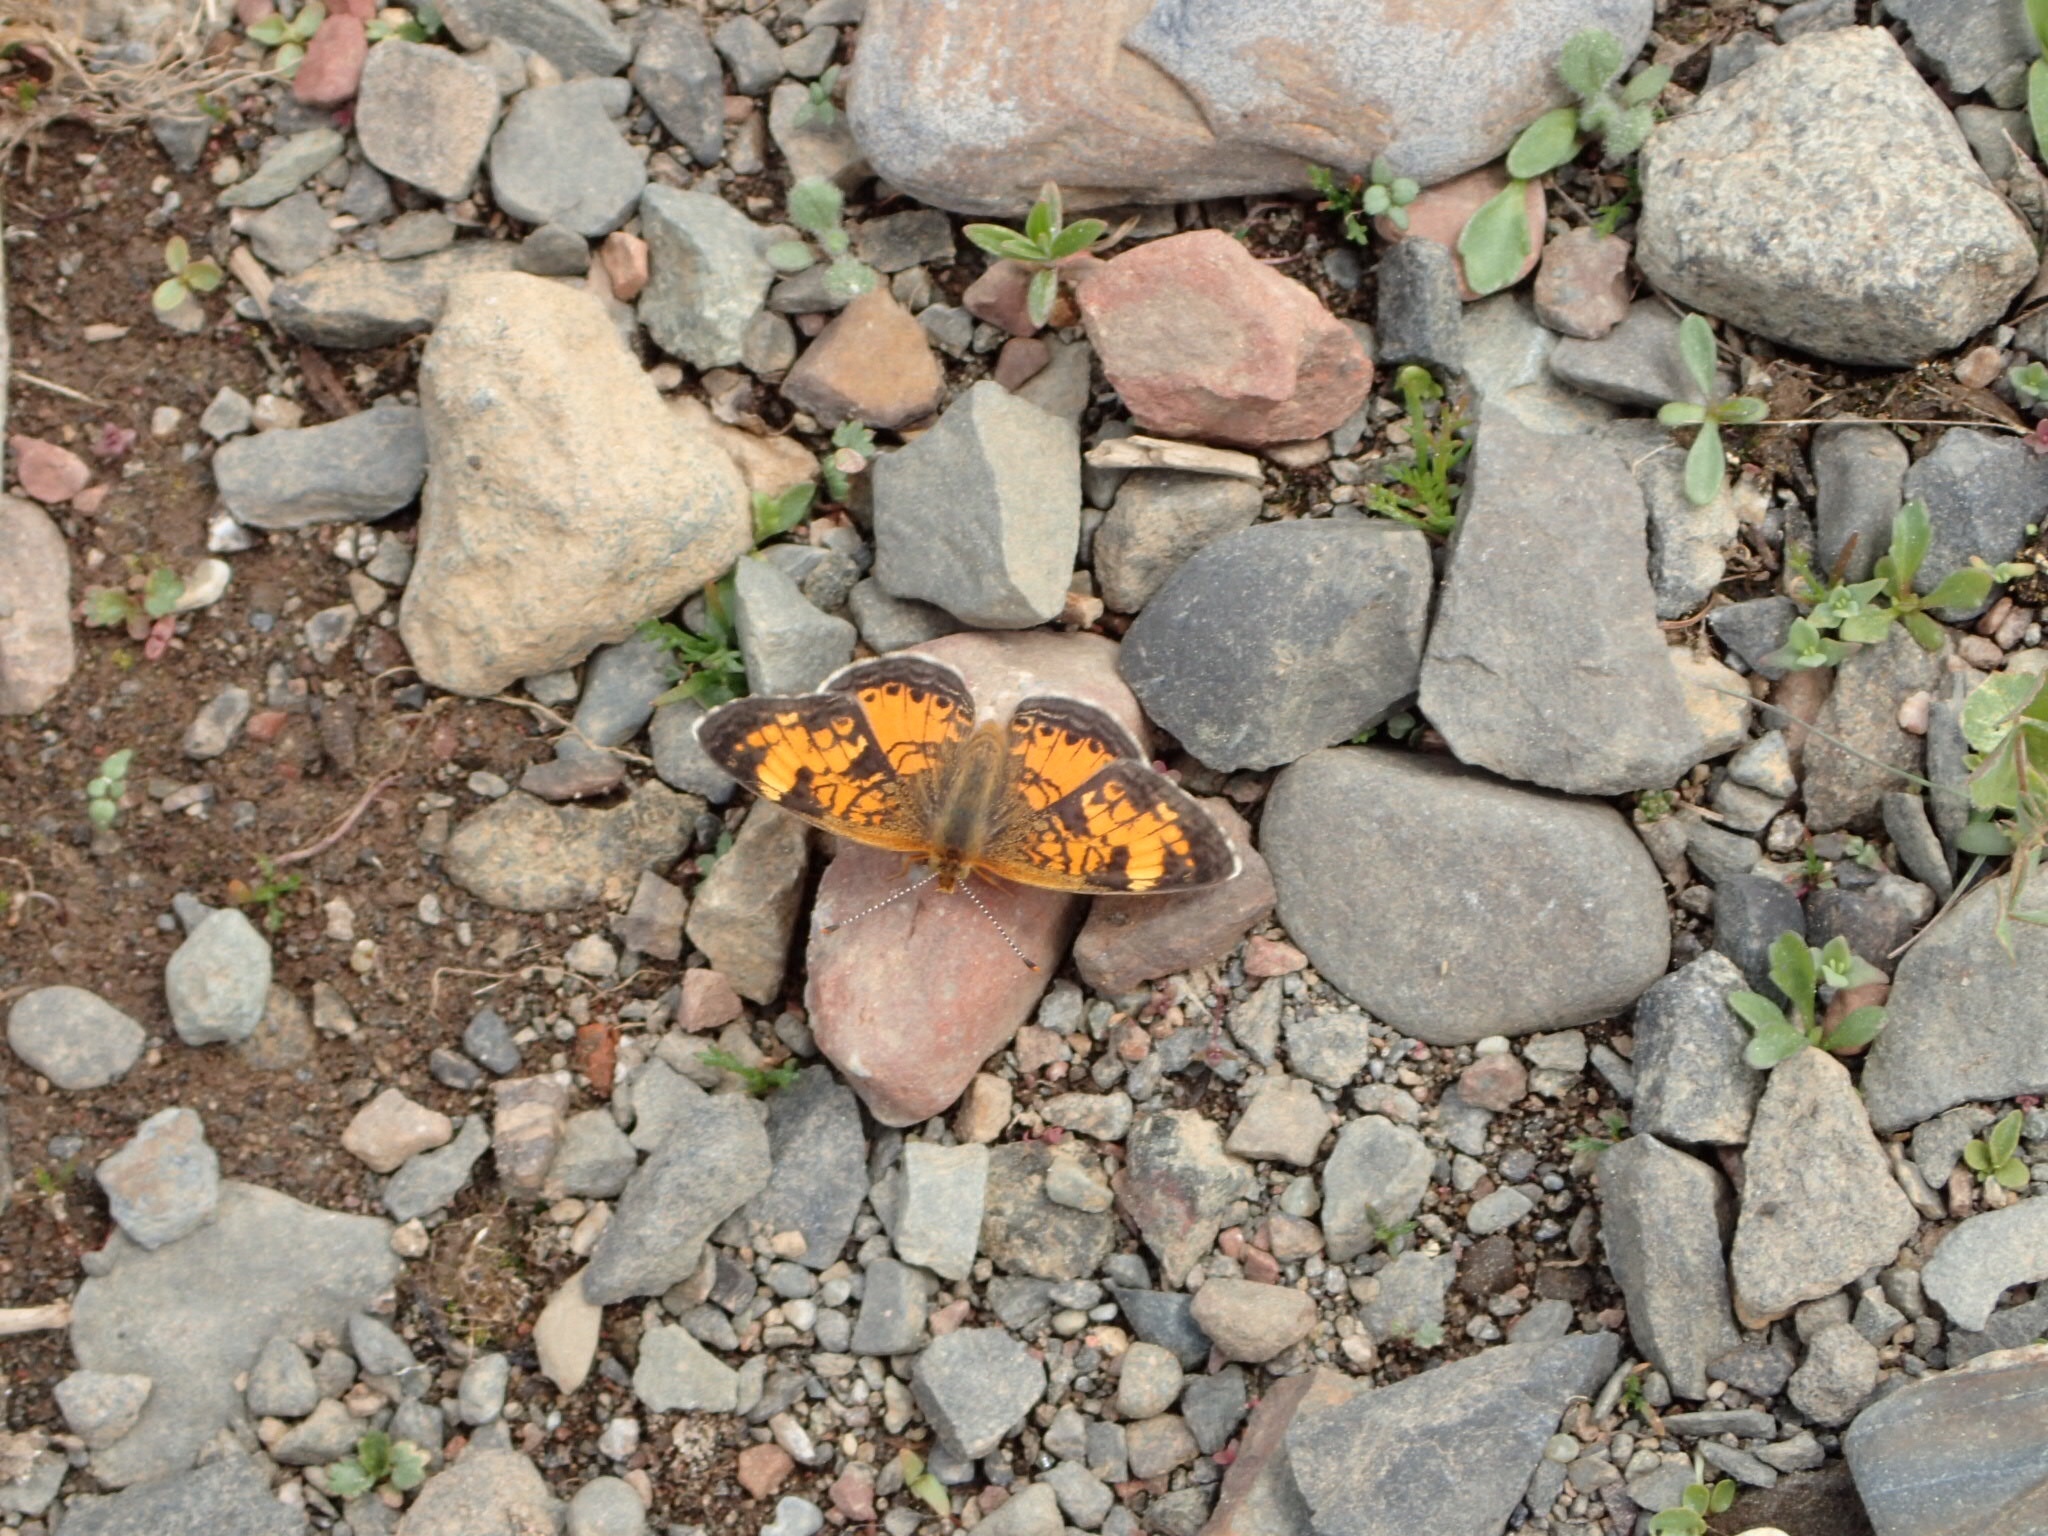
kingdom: Animalia
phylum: Arthropoda
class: Insecta
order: Lepidoptera
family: Nymphalidae
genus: Phyciodes
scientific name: Phyciodes tharos
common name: Pearl crescent
